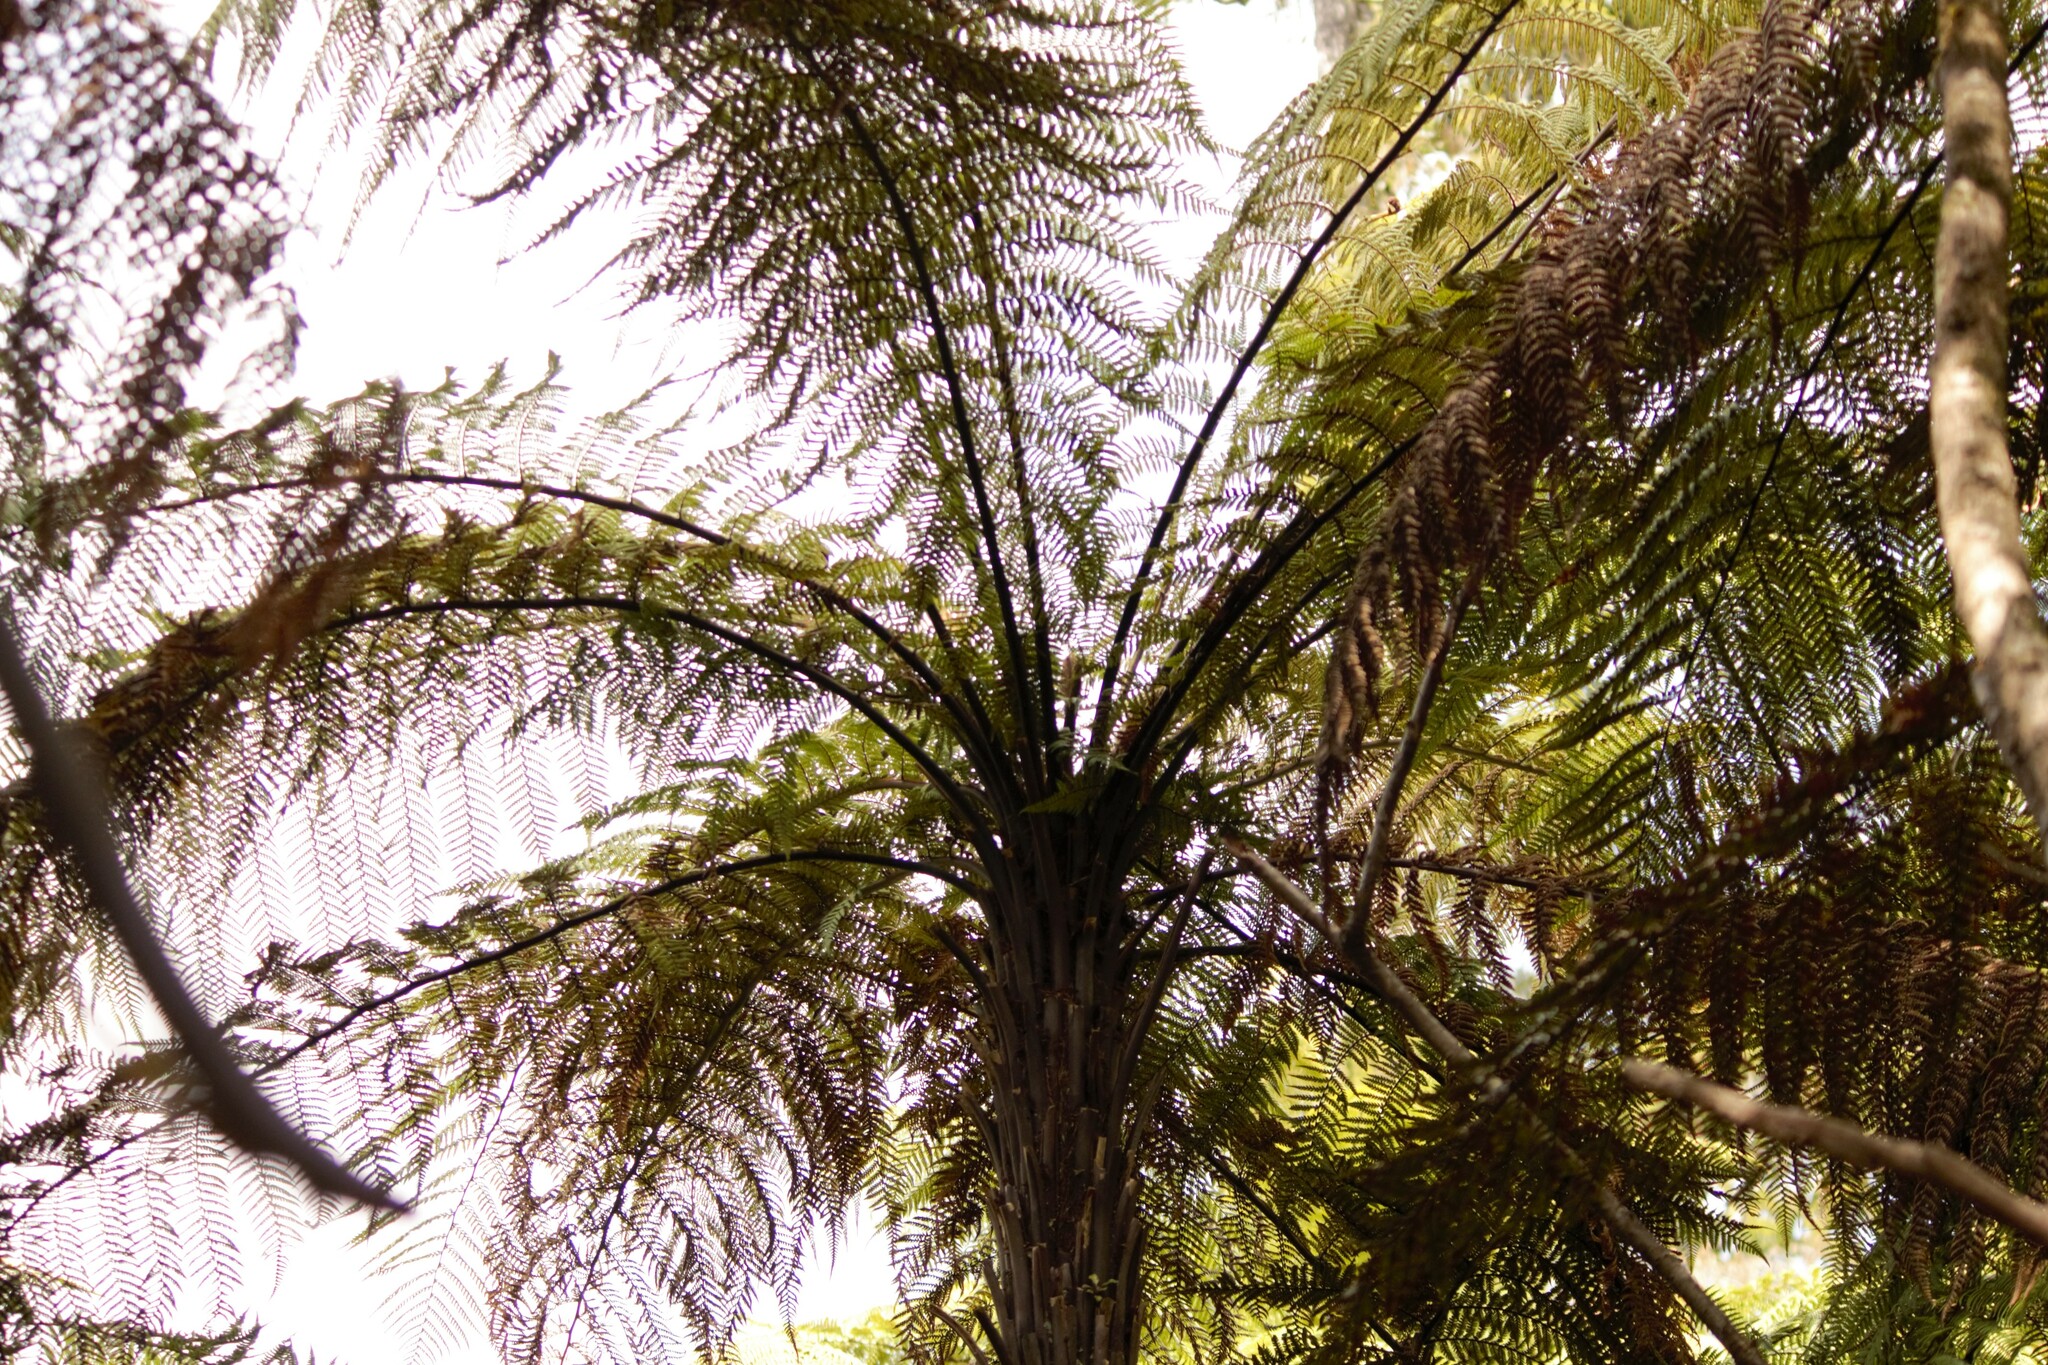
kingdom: Plantae
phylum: Tracheophyta
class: Polypodiopsida
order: Cyatheales
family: Dicksoniaceae
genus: Dicksonia
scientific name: Dicksonia squarrosa
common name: Hard treefern
